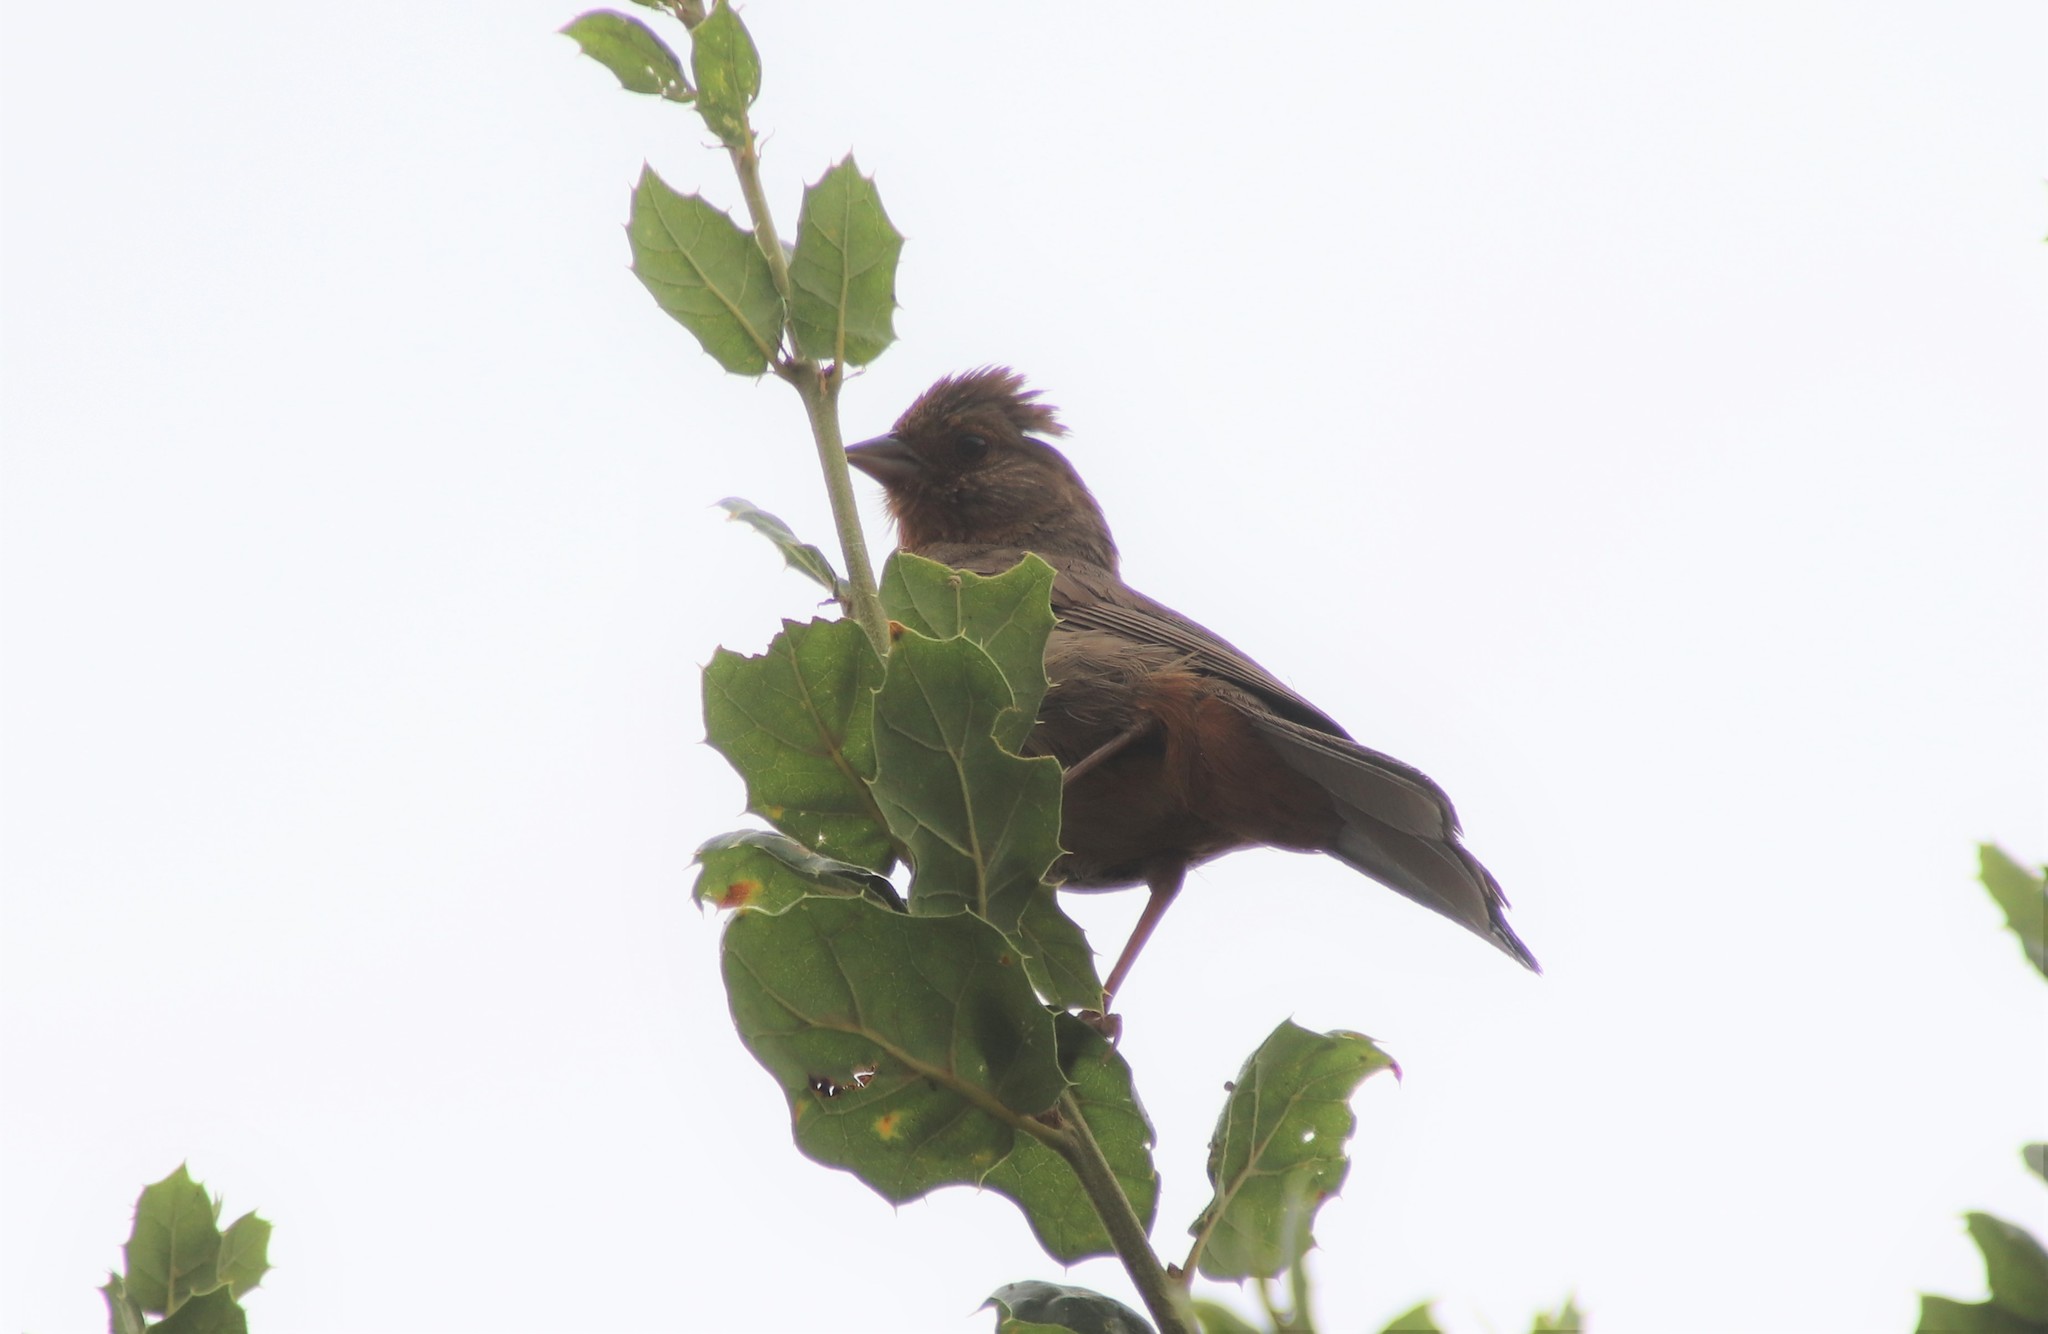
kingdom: Animalia
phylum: Chordata
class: Aves
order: Passeriformes
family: Passerellidae
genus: Melozone
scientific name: Melozone crissalis
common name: California towhee
